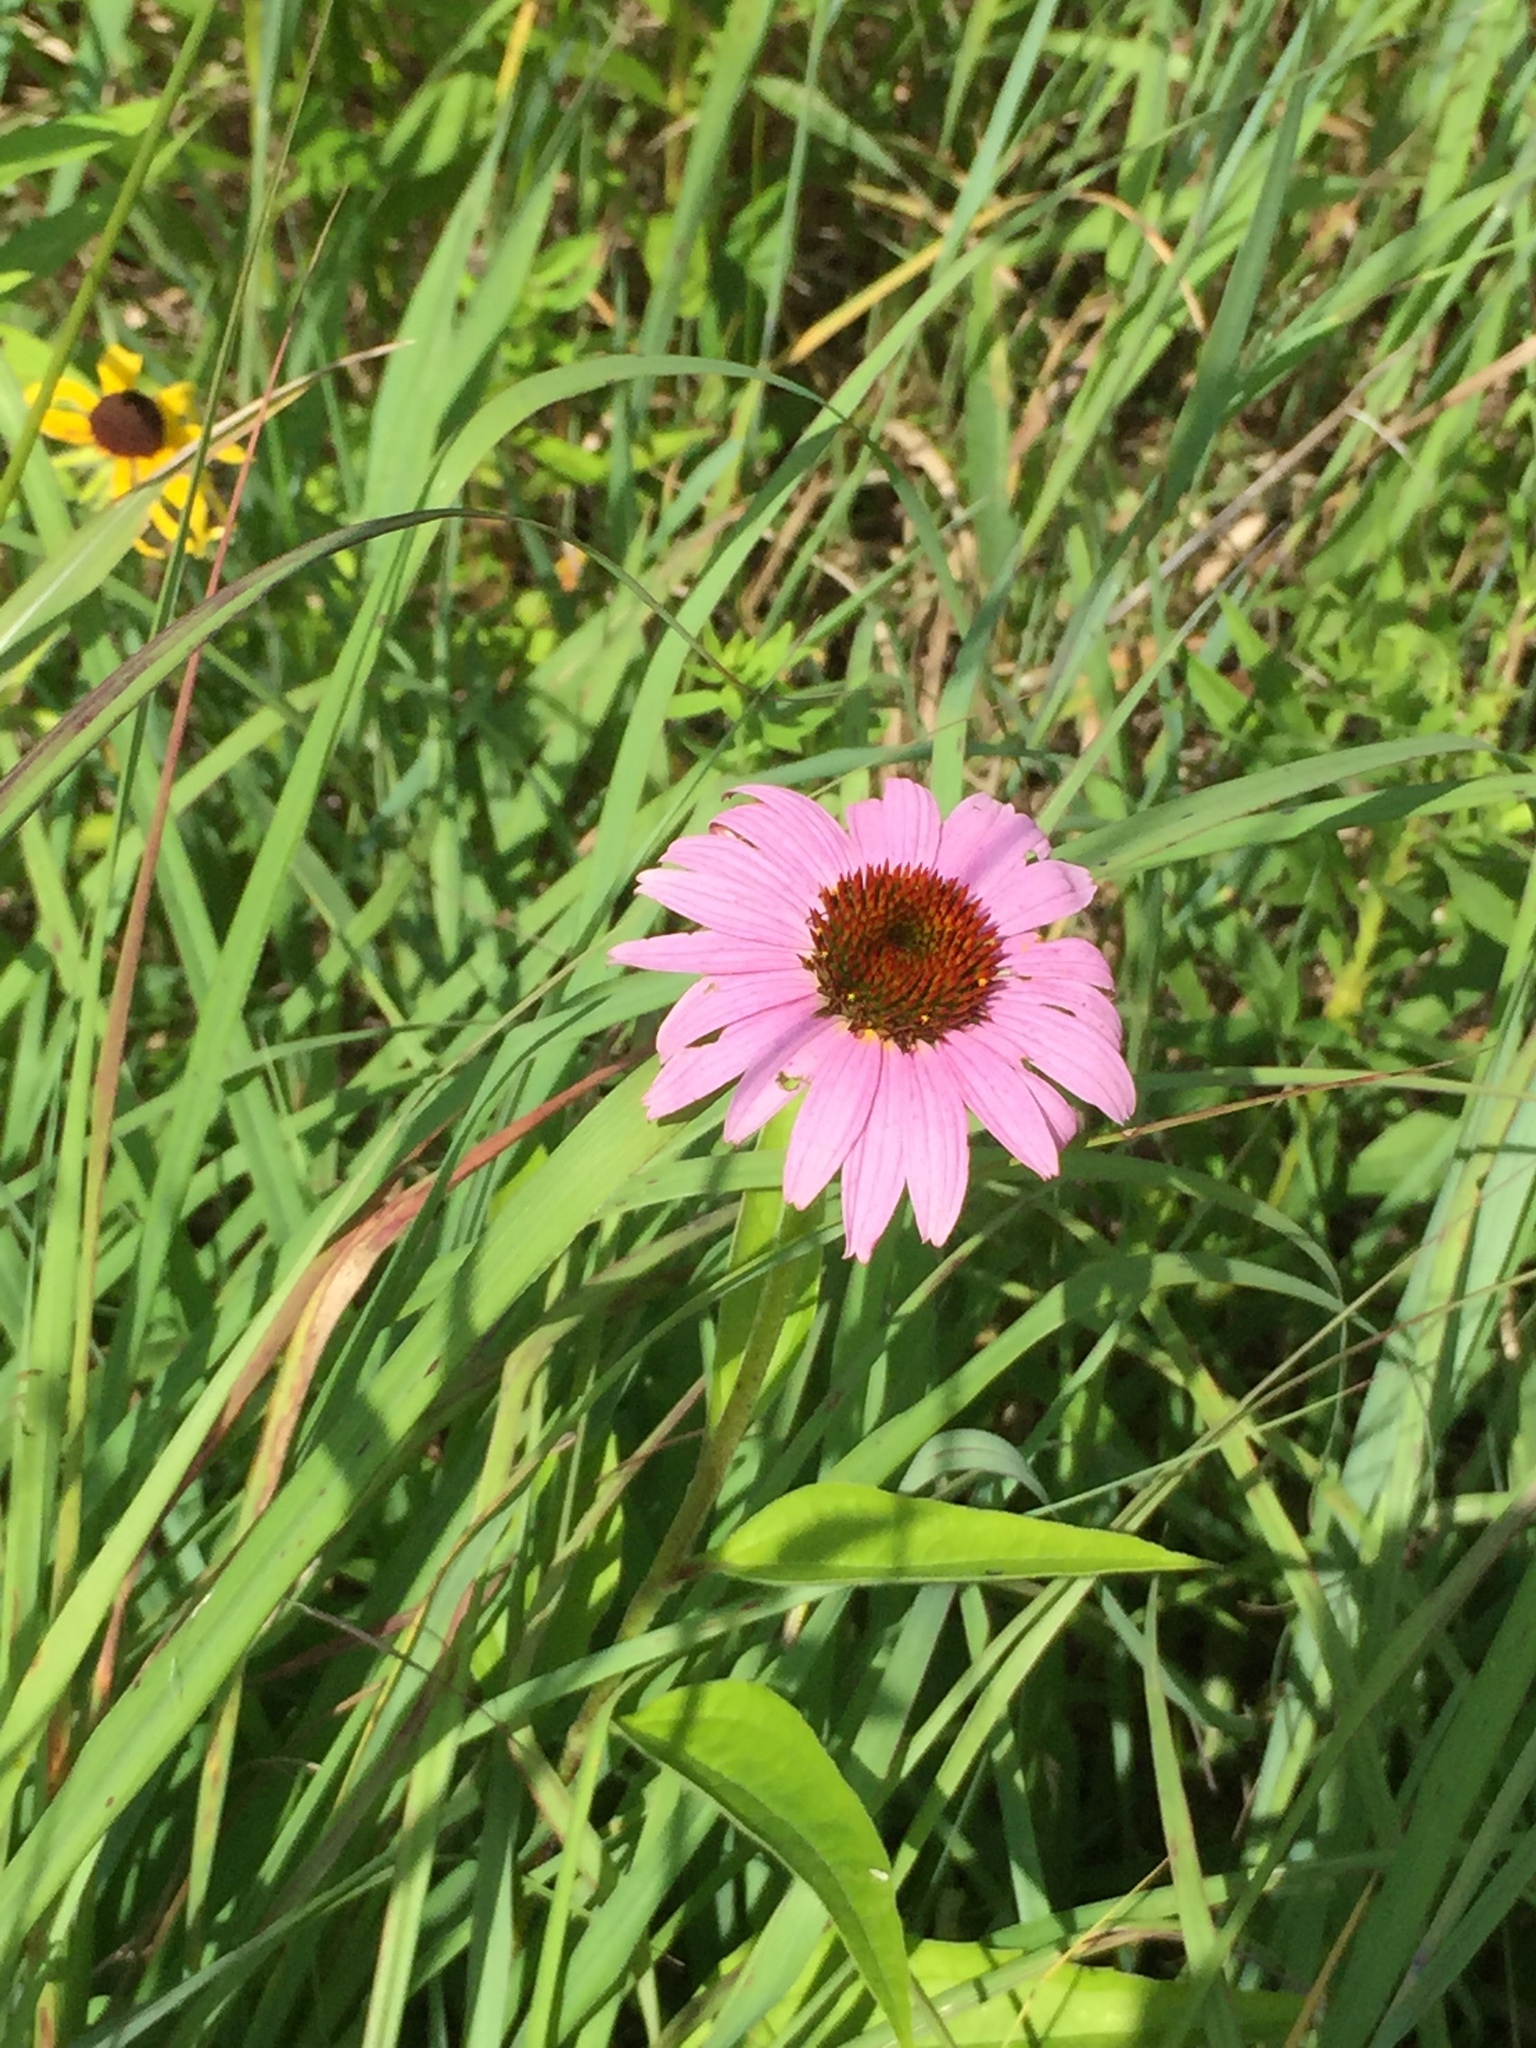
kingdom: Plantae
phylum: Tracheophyta
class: Magnoliopsida
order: Asterales
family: Asteraceae
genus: Echinacea
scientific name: Echinacea purpurea
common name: Broad-leaved purple coneflower
